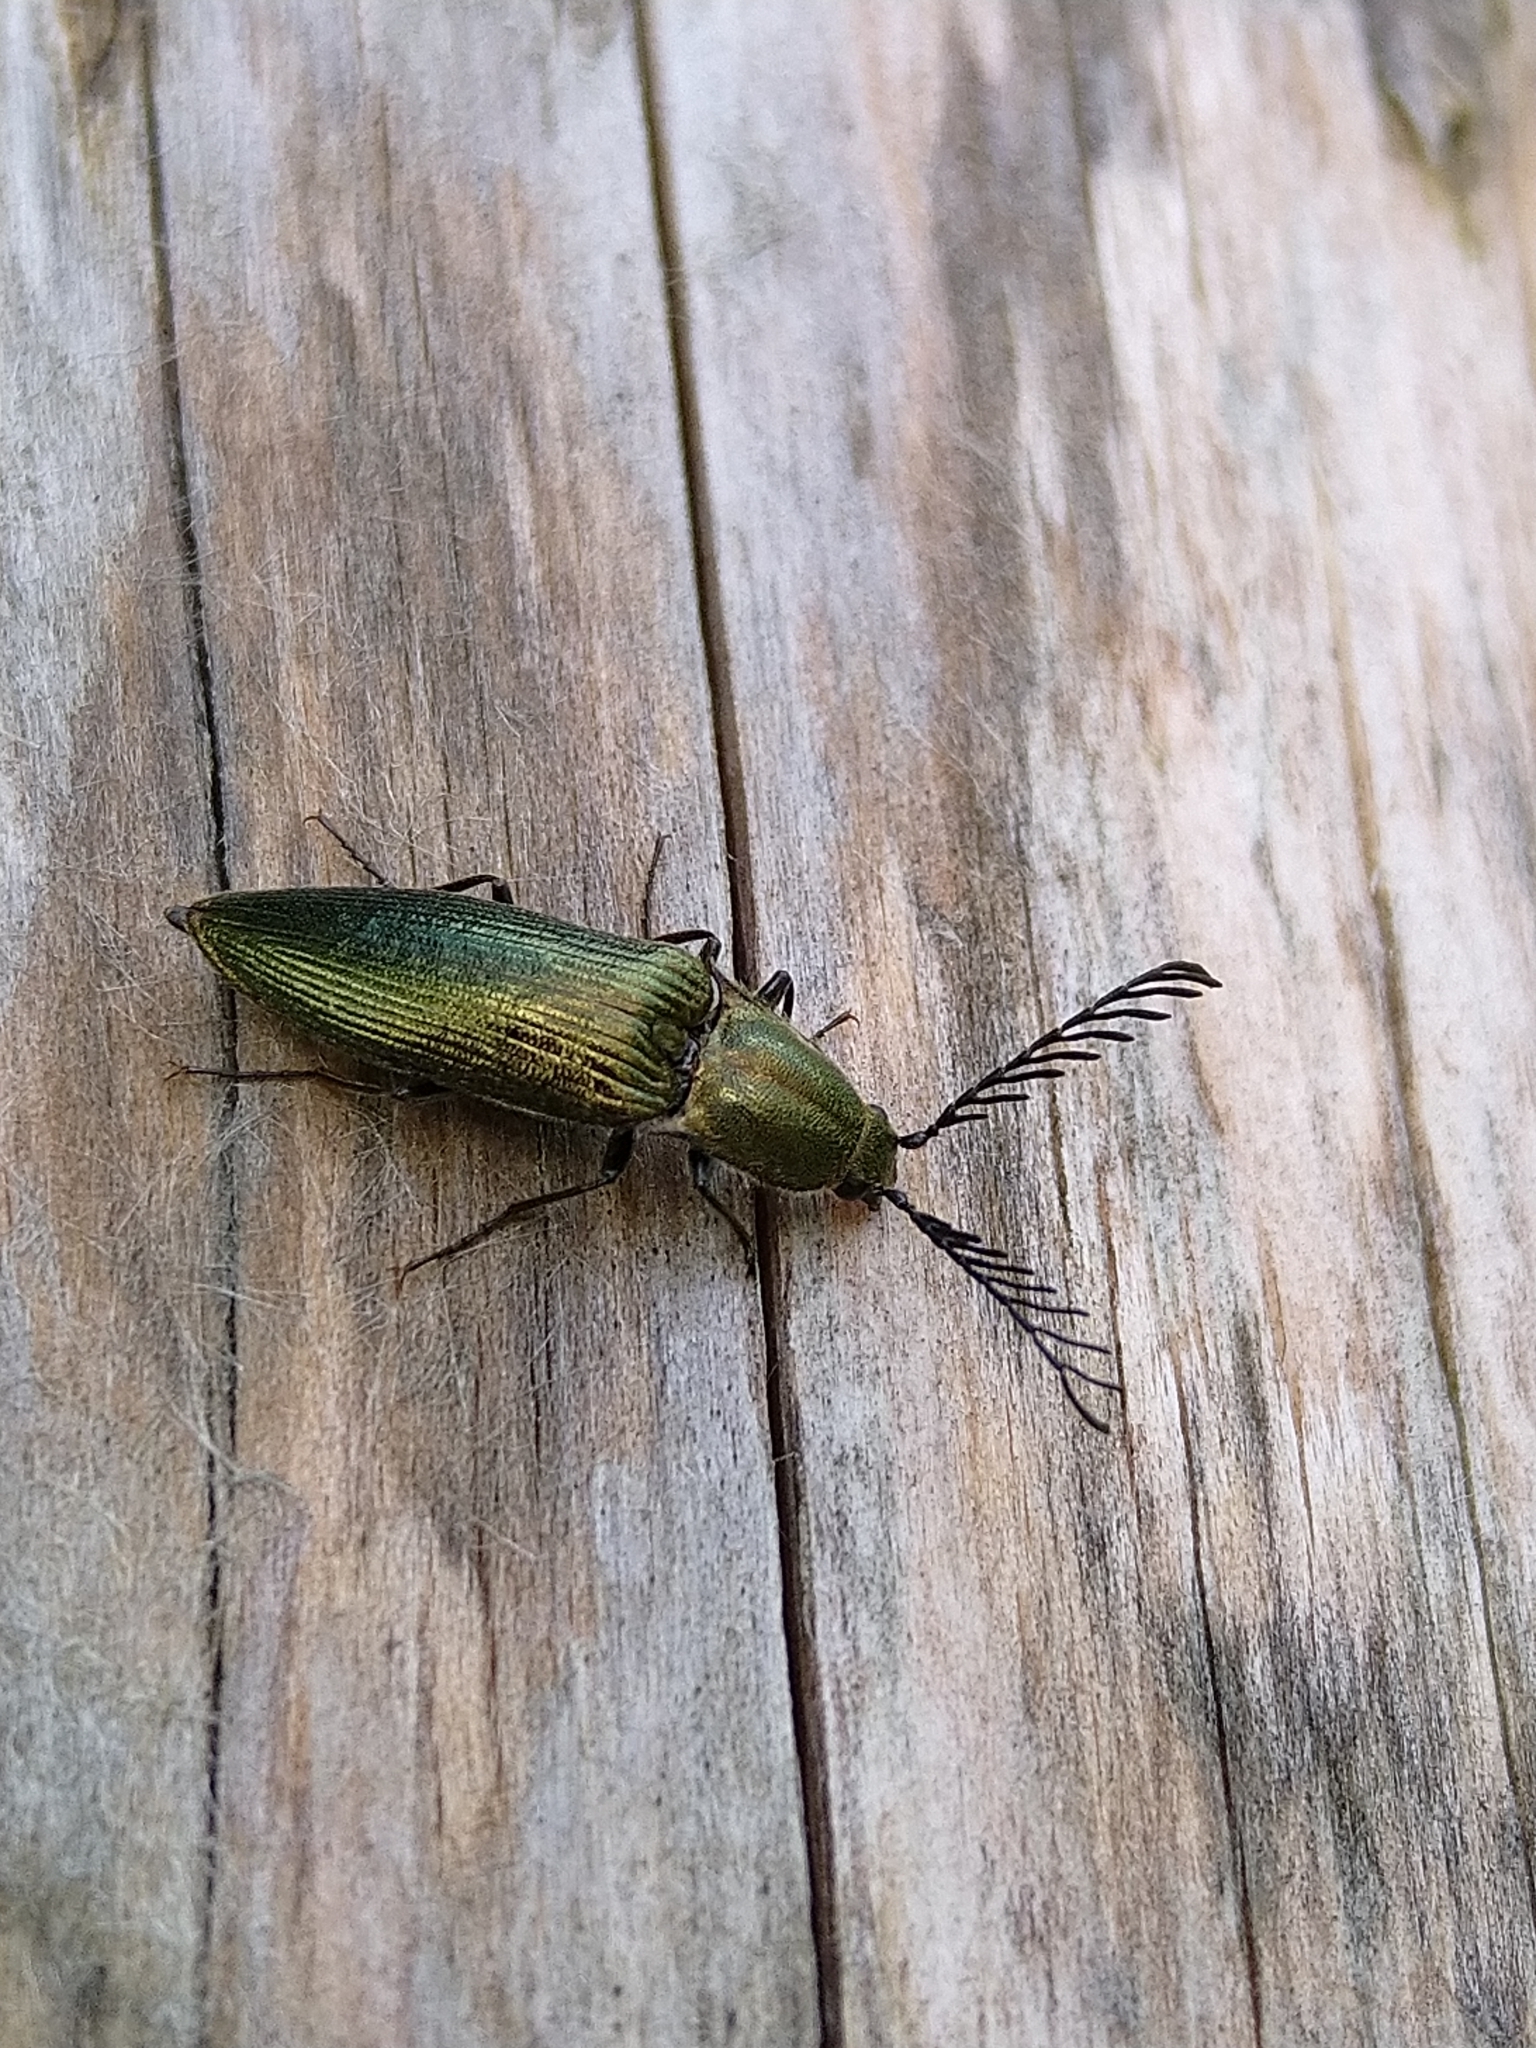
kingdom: Animalia
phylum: Arthropoda
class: Insecta
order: Coleoptera
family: Elateridae
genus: Ctenicera
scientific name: Ctenicera pectinicornis
